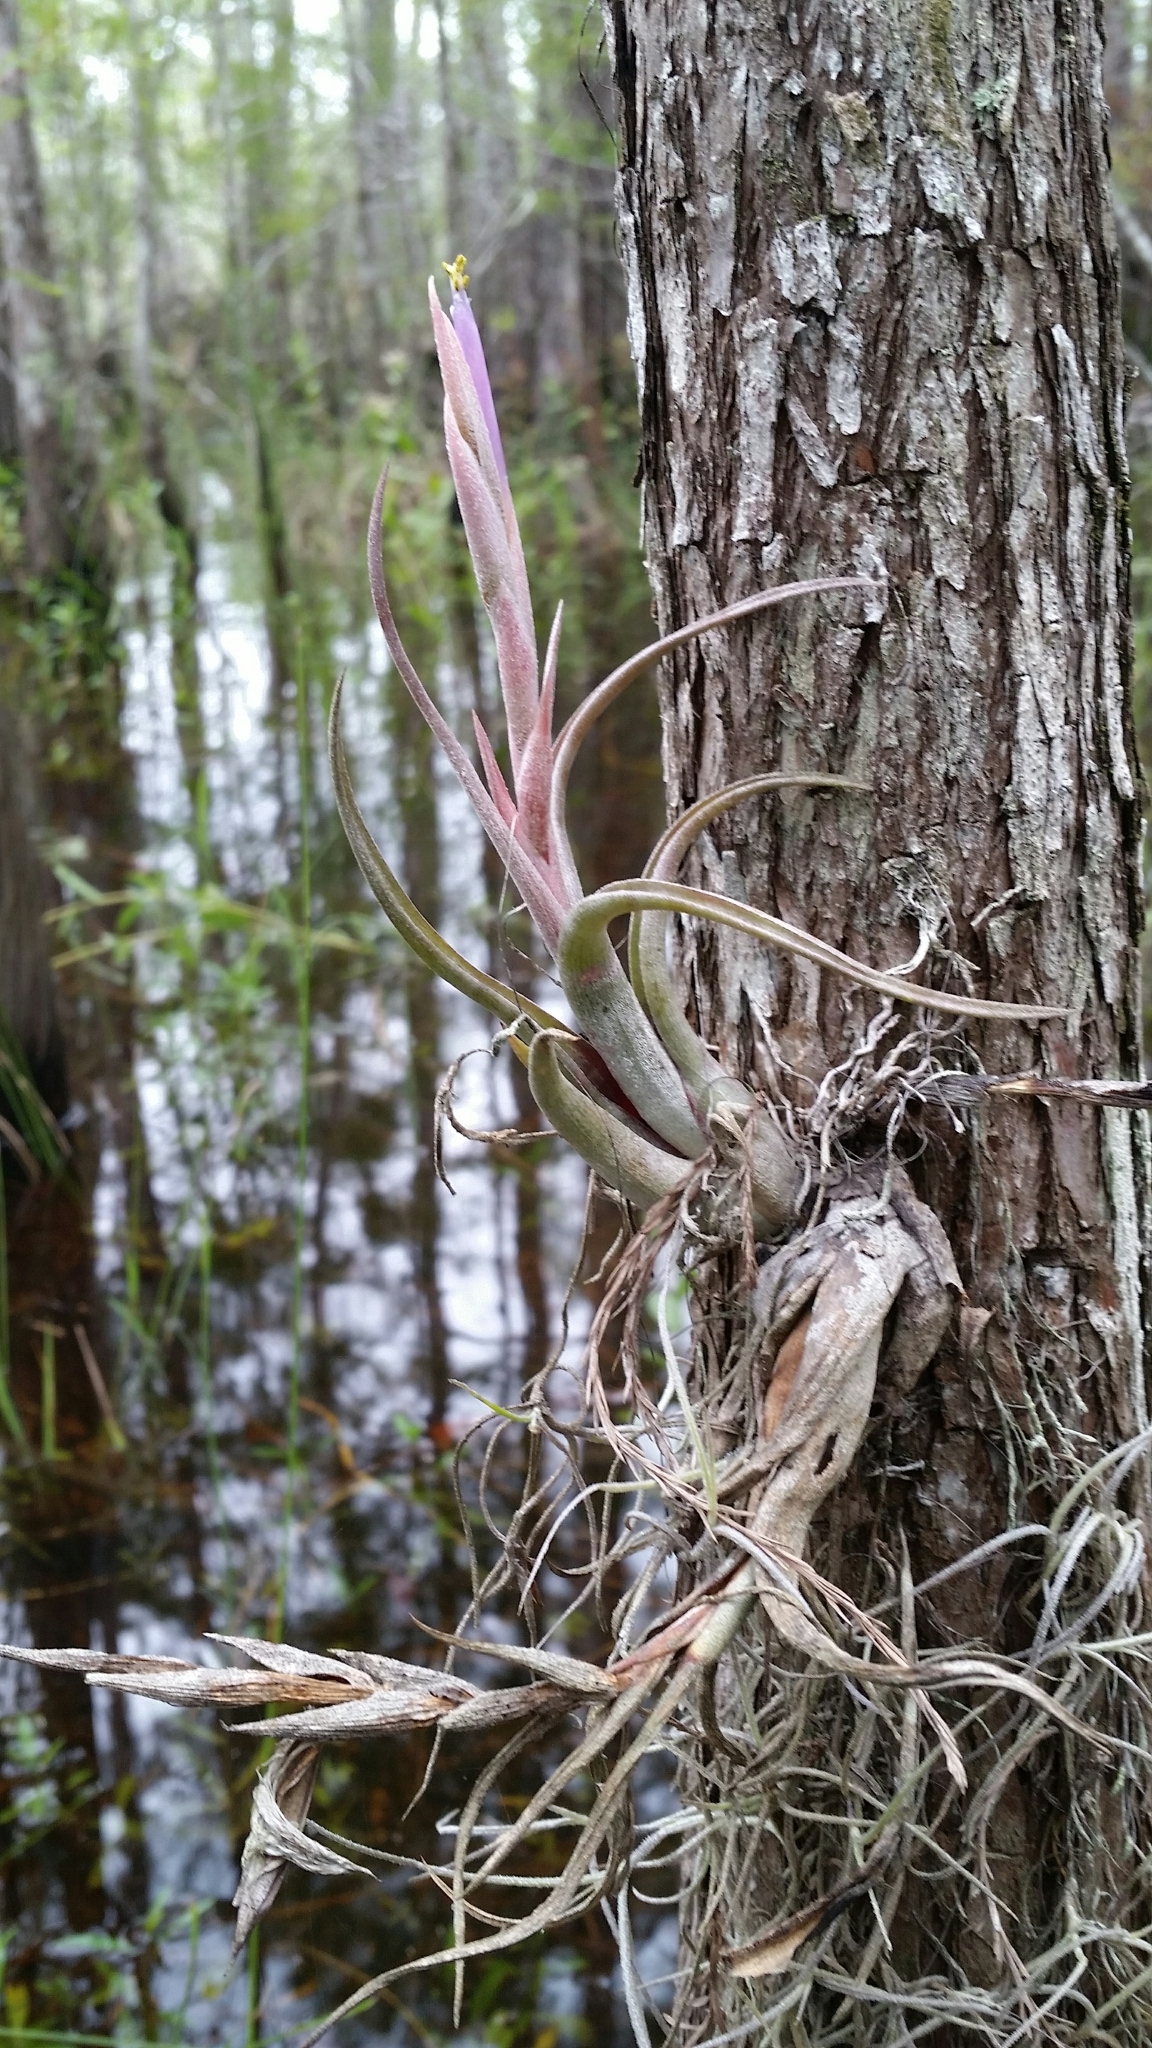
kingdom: Plantae
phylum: Tracheophyta
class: Liliopsida
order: Poales
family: Bromeliaceae
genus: Tillandsia
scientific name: Tillandsia paucifolia
